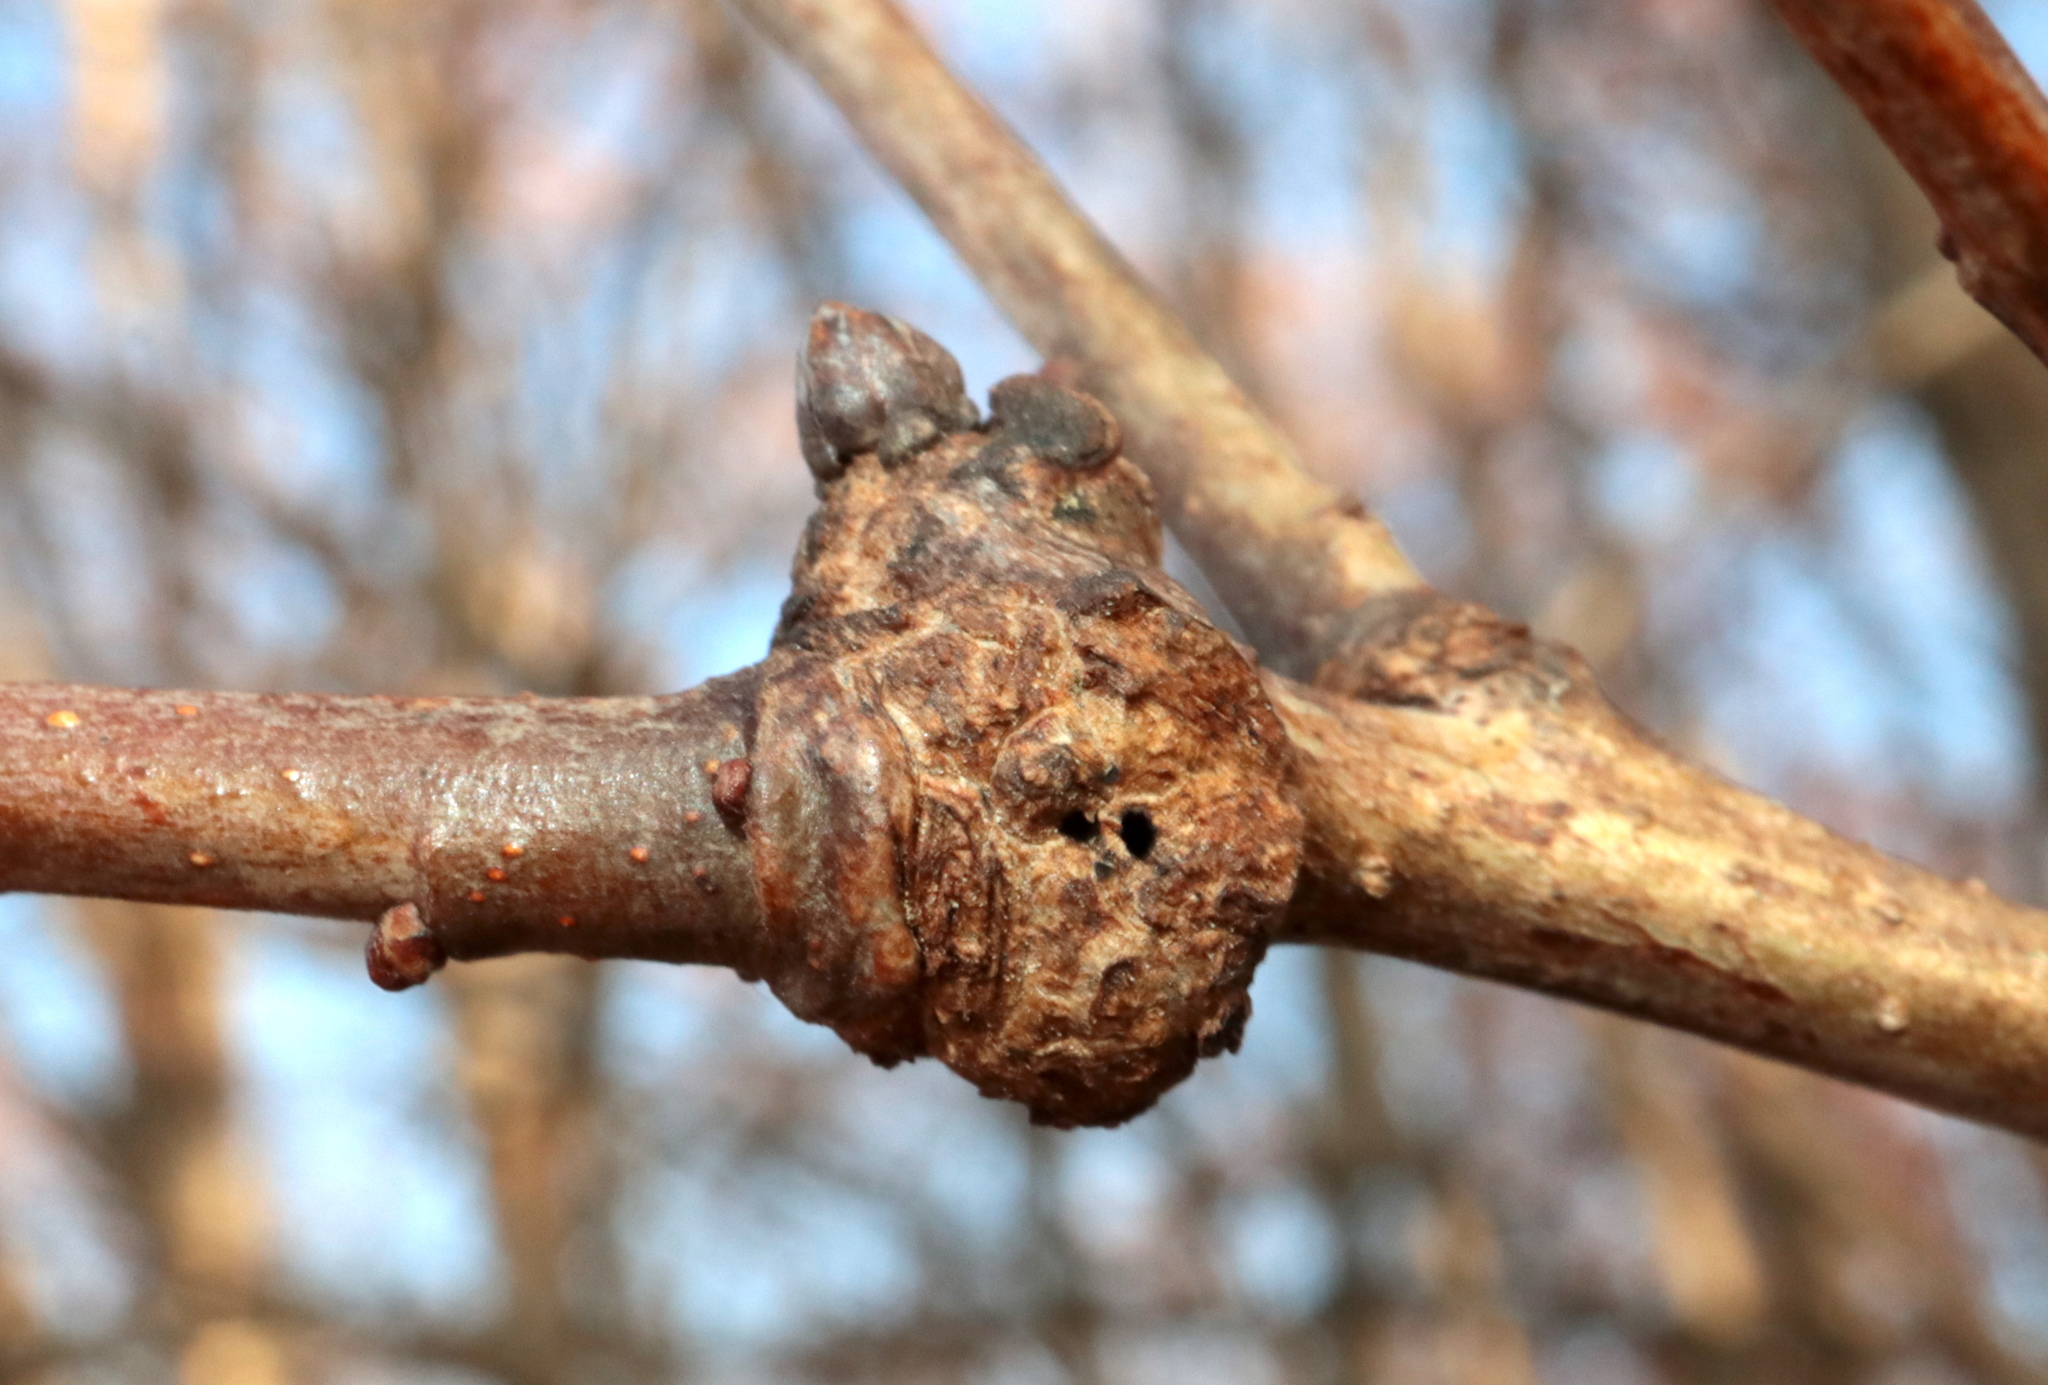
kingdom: Animalia
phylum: Arthropoda
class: Insecta
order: Hymenoptera
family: Cynipidae
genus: Loxaulus
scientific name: Loxaulus
